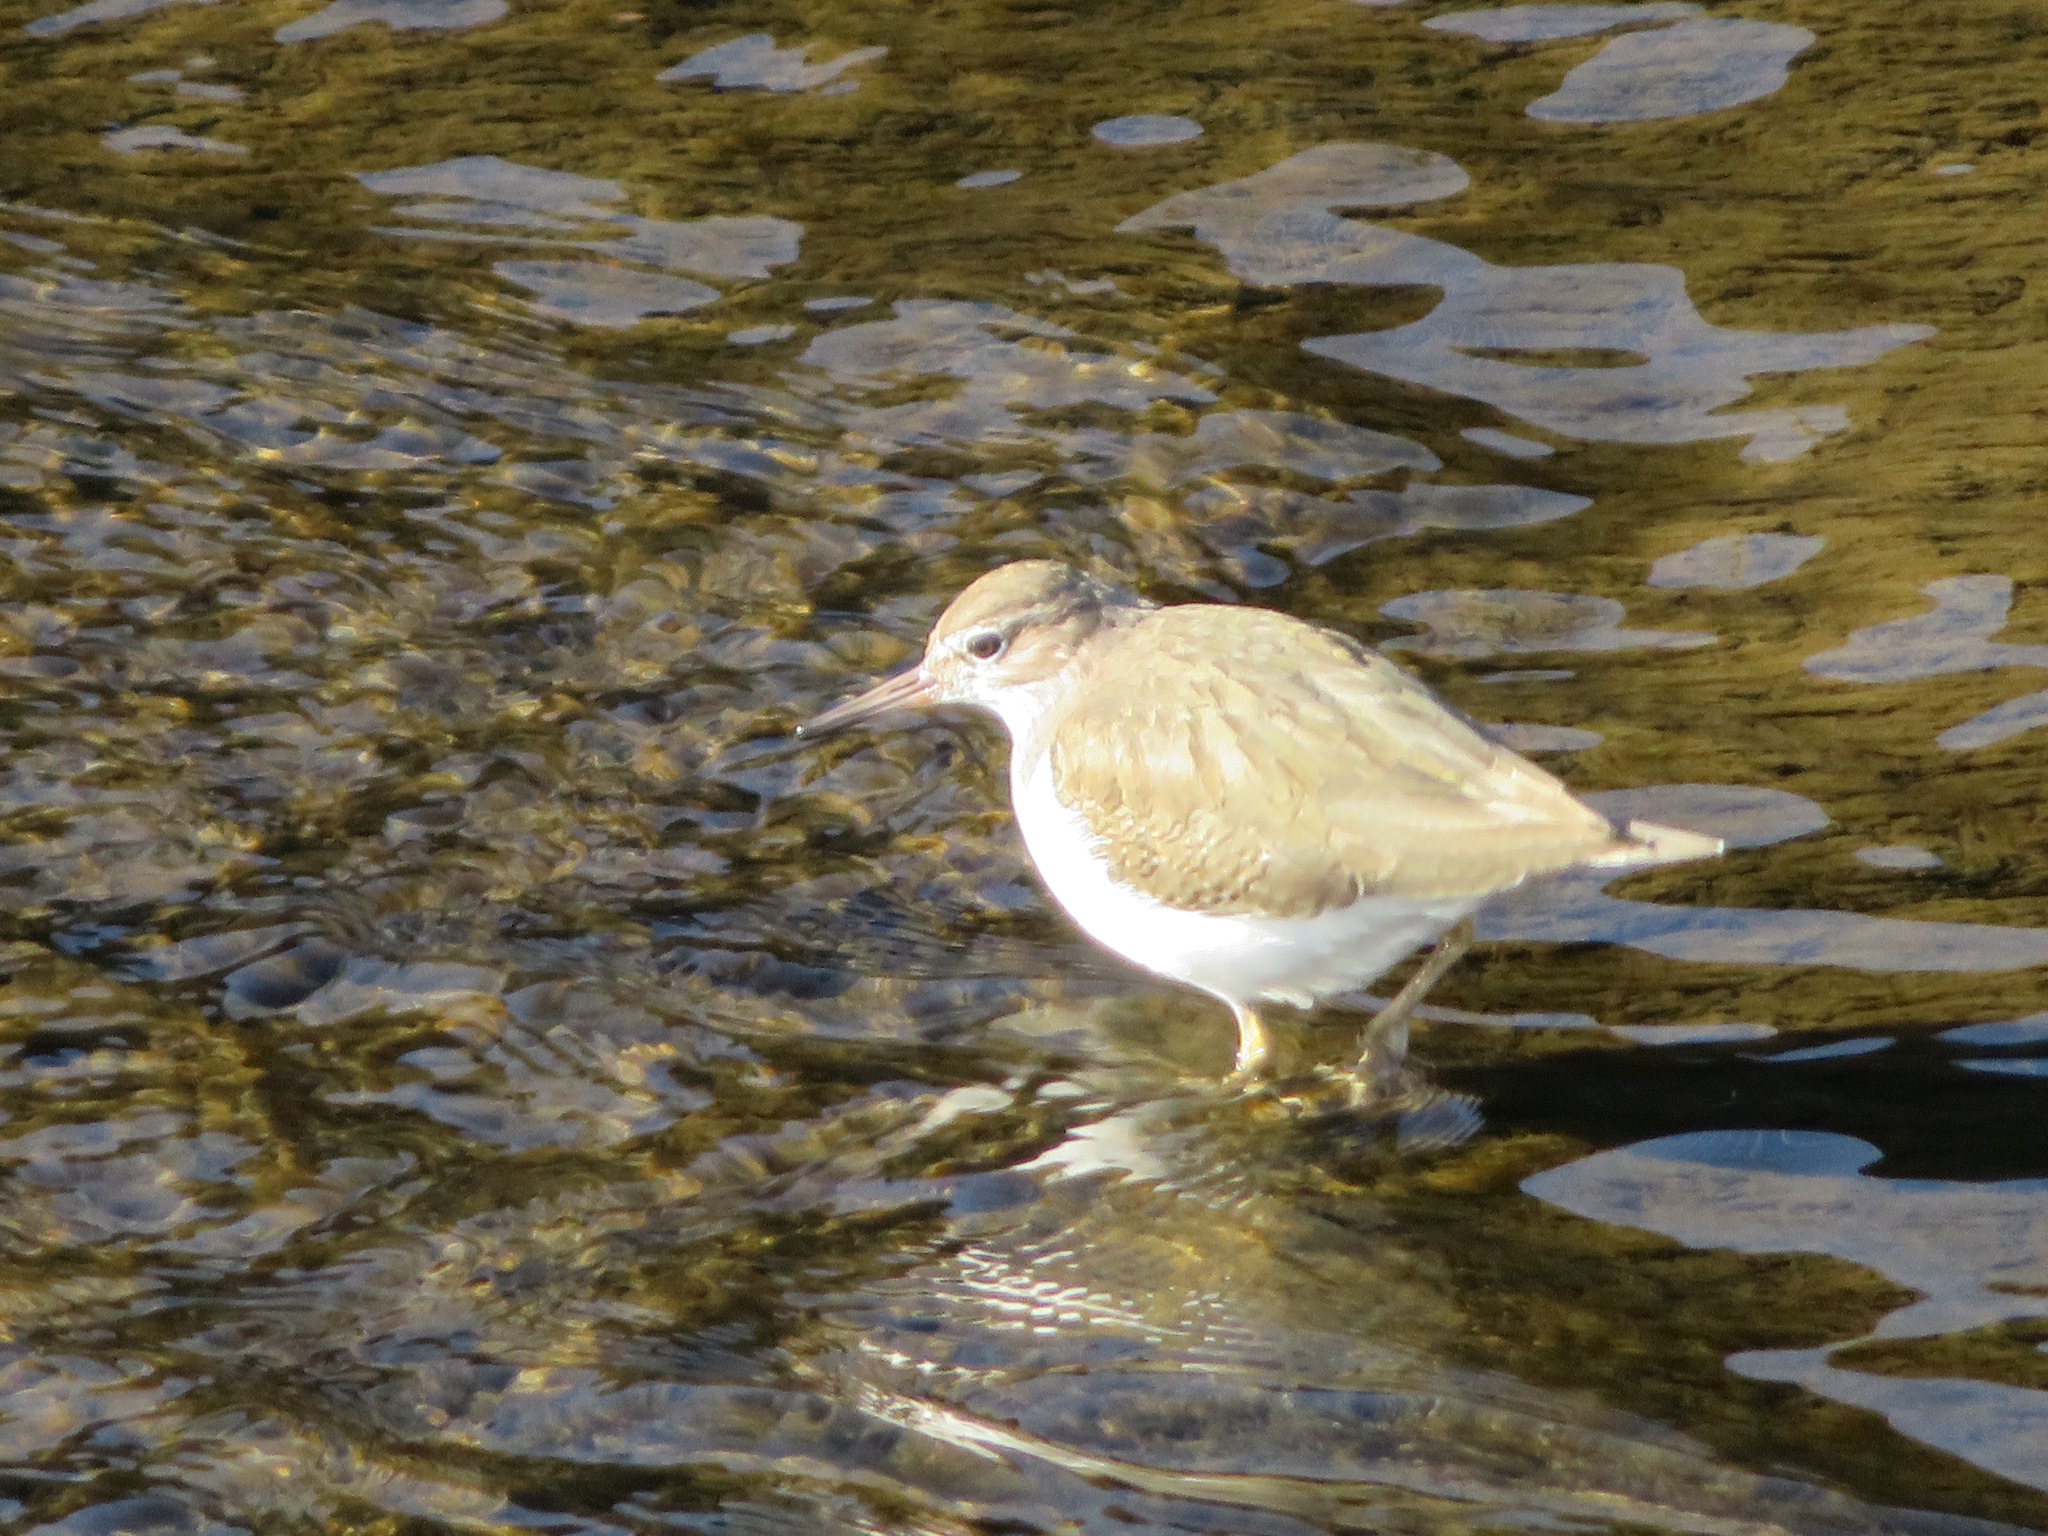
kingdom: Animalia
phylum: Chordata
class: Aves
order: Charadriiformes
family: Scolopacidae
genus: Actitis
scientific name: Actitis hypoleucos
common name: Common sandpiper
